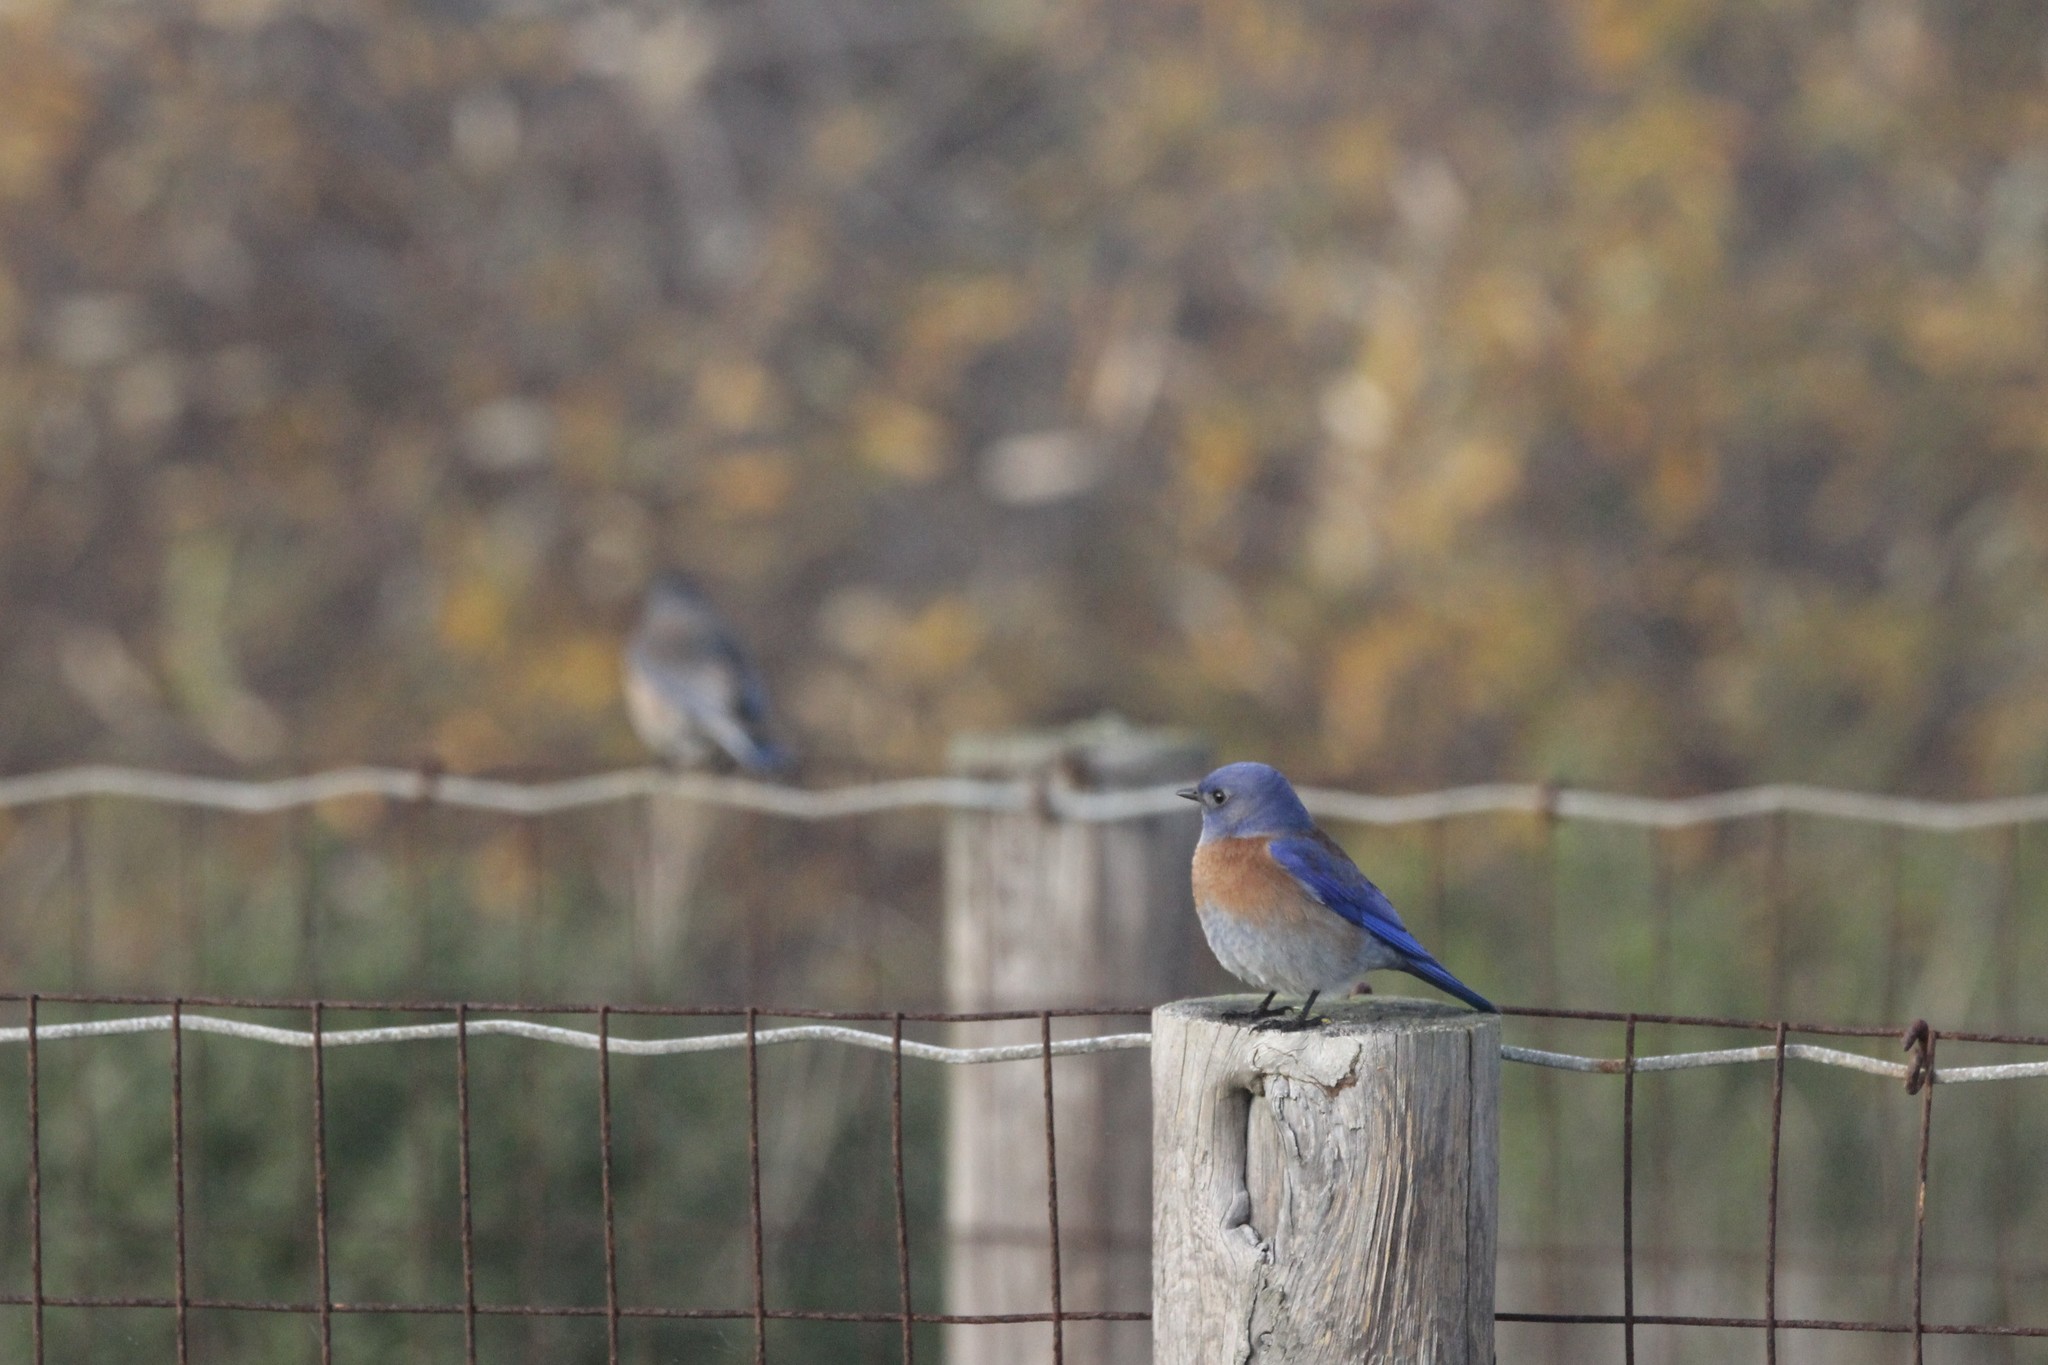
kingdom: Animalia
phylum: Chordata
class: Aves
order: Passeriformes
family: Turdidae
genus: Sialia
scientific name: Sialia mexicana
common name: Western bluebird
